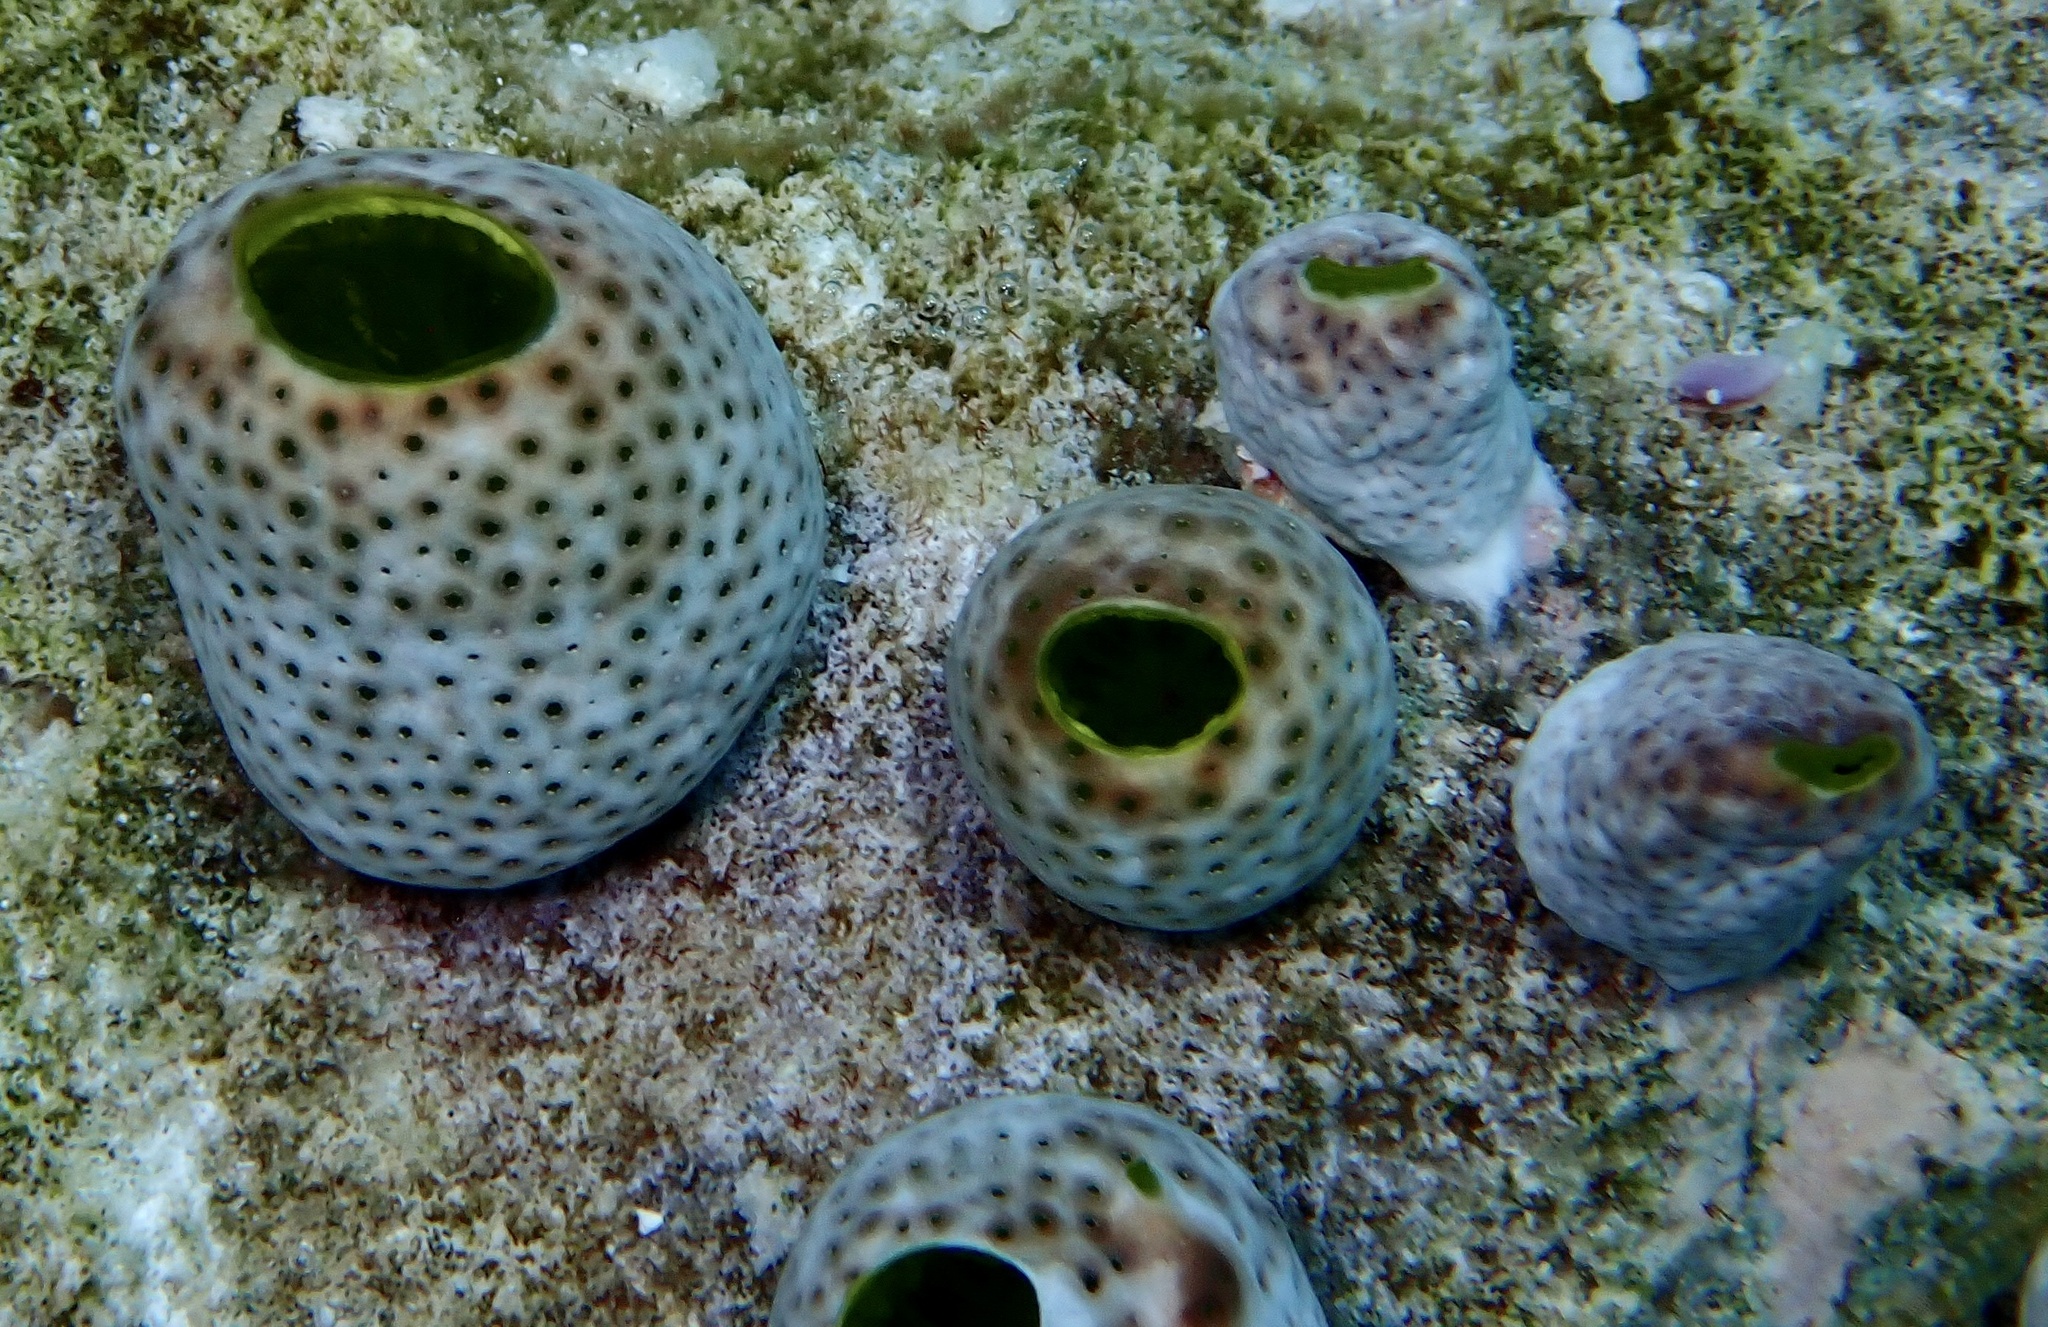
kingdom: Animalia
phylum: Chordata
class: Ascidiacea
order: Aplousobranchia
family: Didemnidae
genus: Didemnum
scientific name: Didemnum molle
